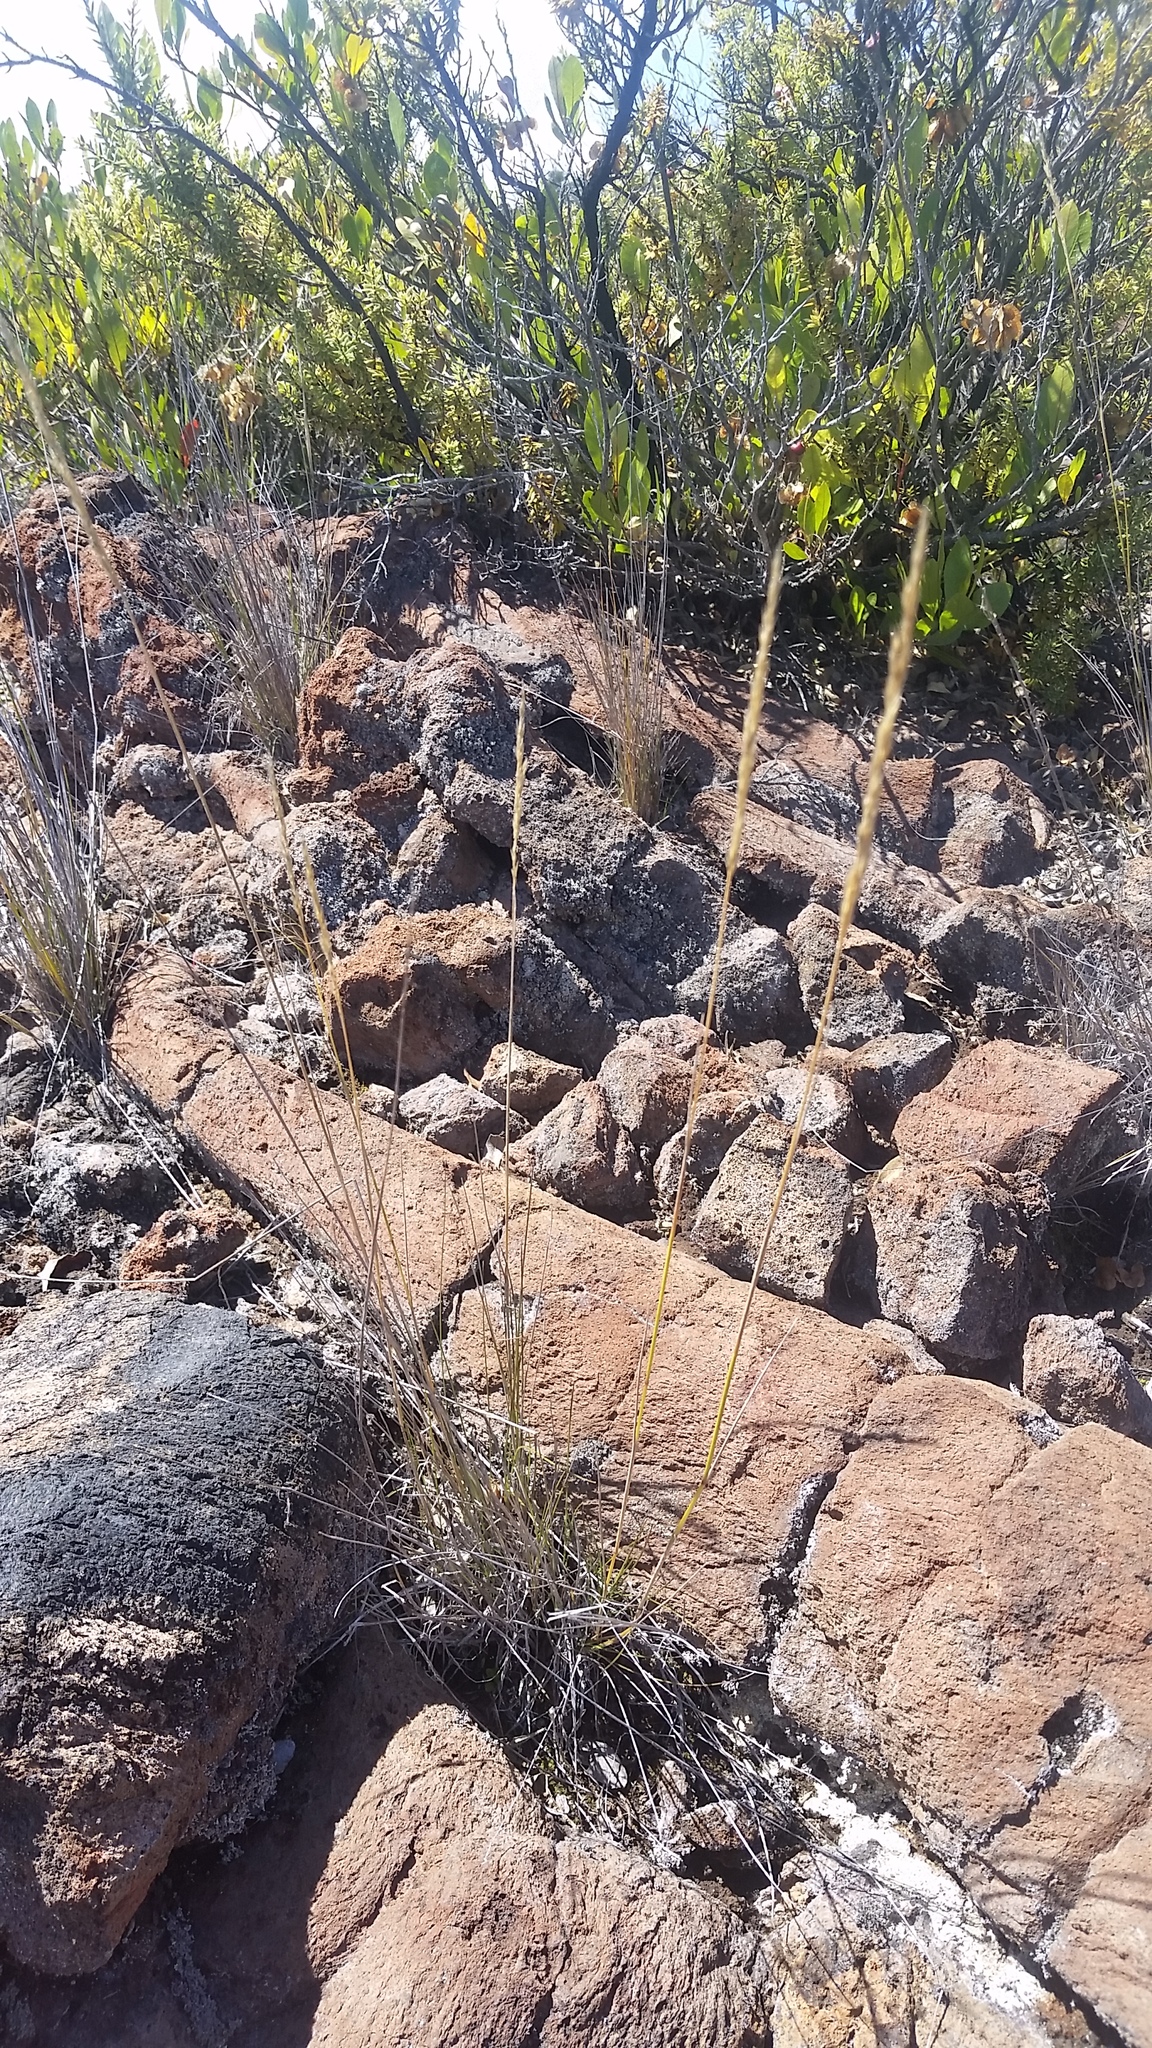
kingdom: Plantae
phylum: Tracheophyta
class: Liliopsida
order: Poales
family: Poaceae
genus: Agrostis
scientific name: Agrostis sandwicensis
